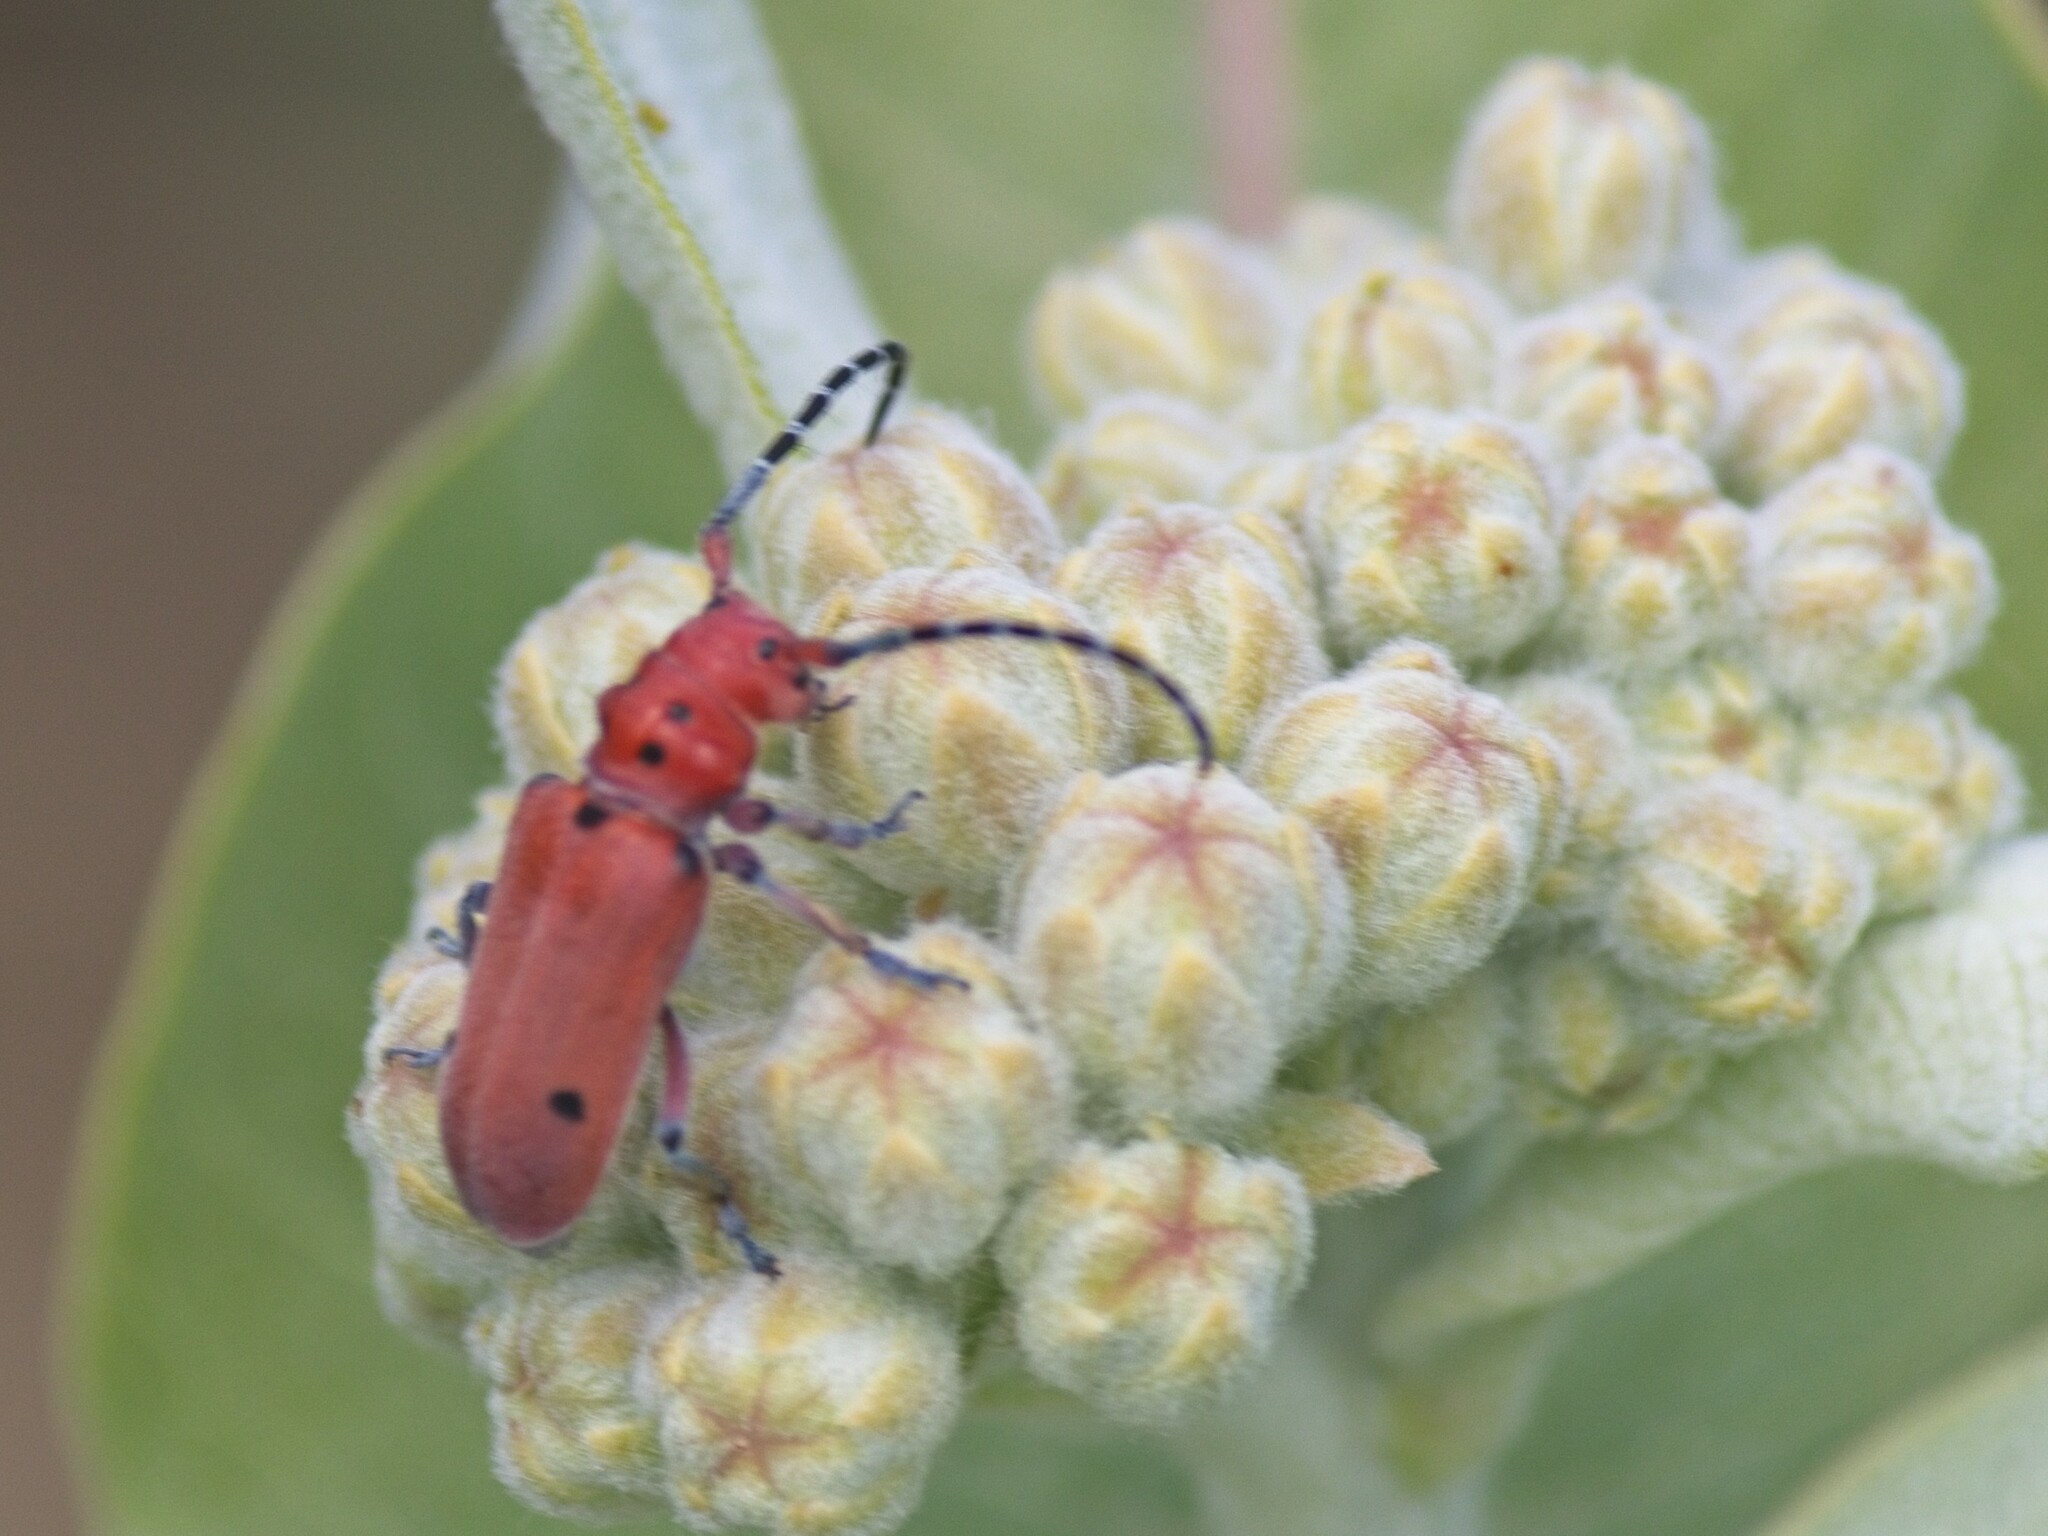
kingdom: Animalia
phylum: Arthropoda
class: Insecta
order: Coleoptera
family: Cerambycidae
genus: Tetraopes
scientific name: Tetraopes femoratus
